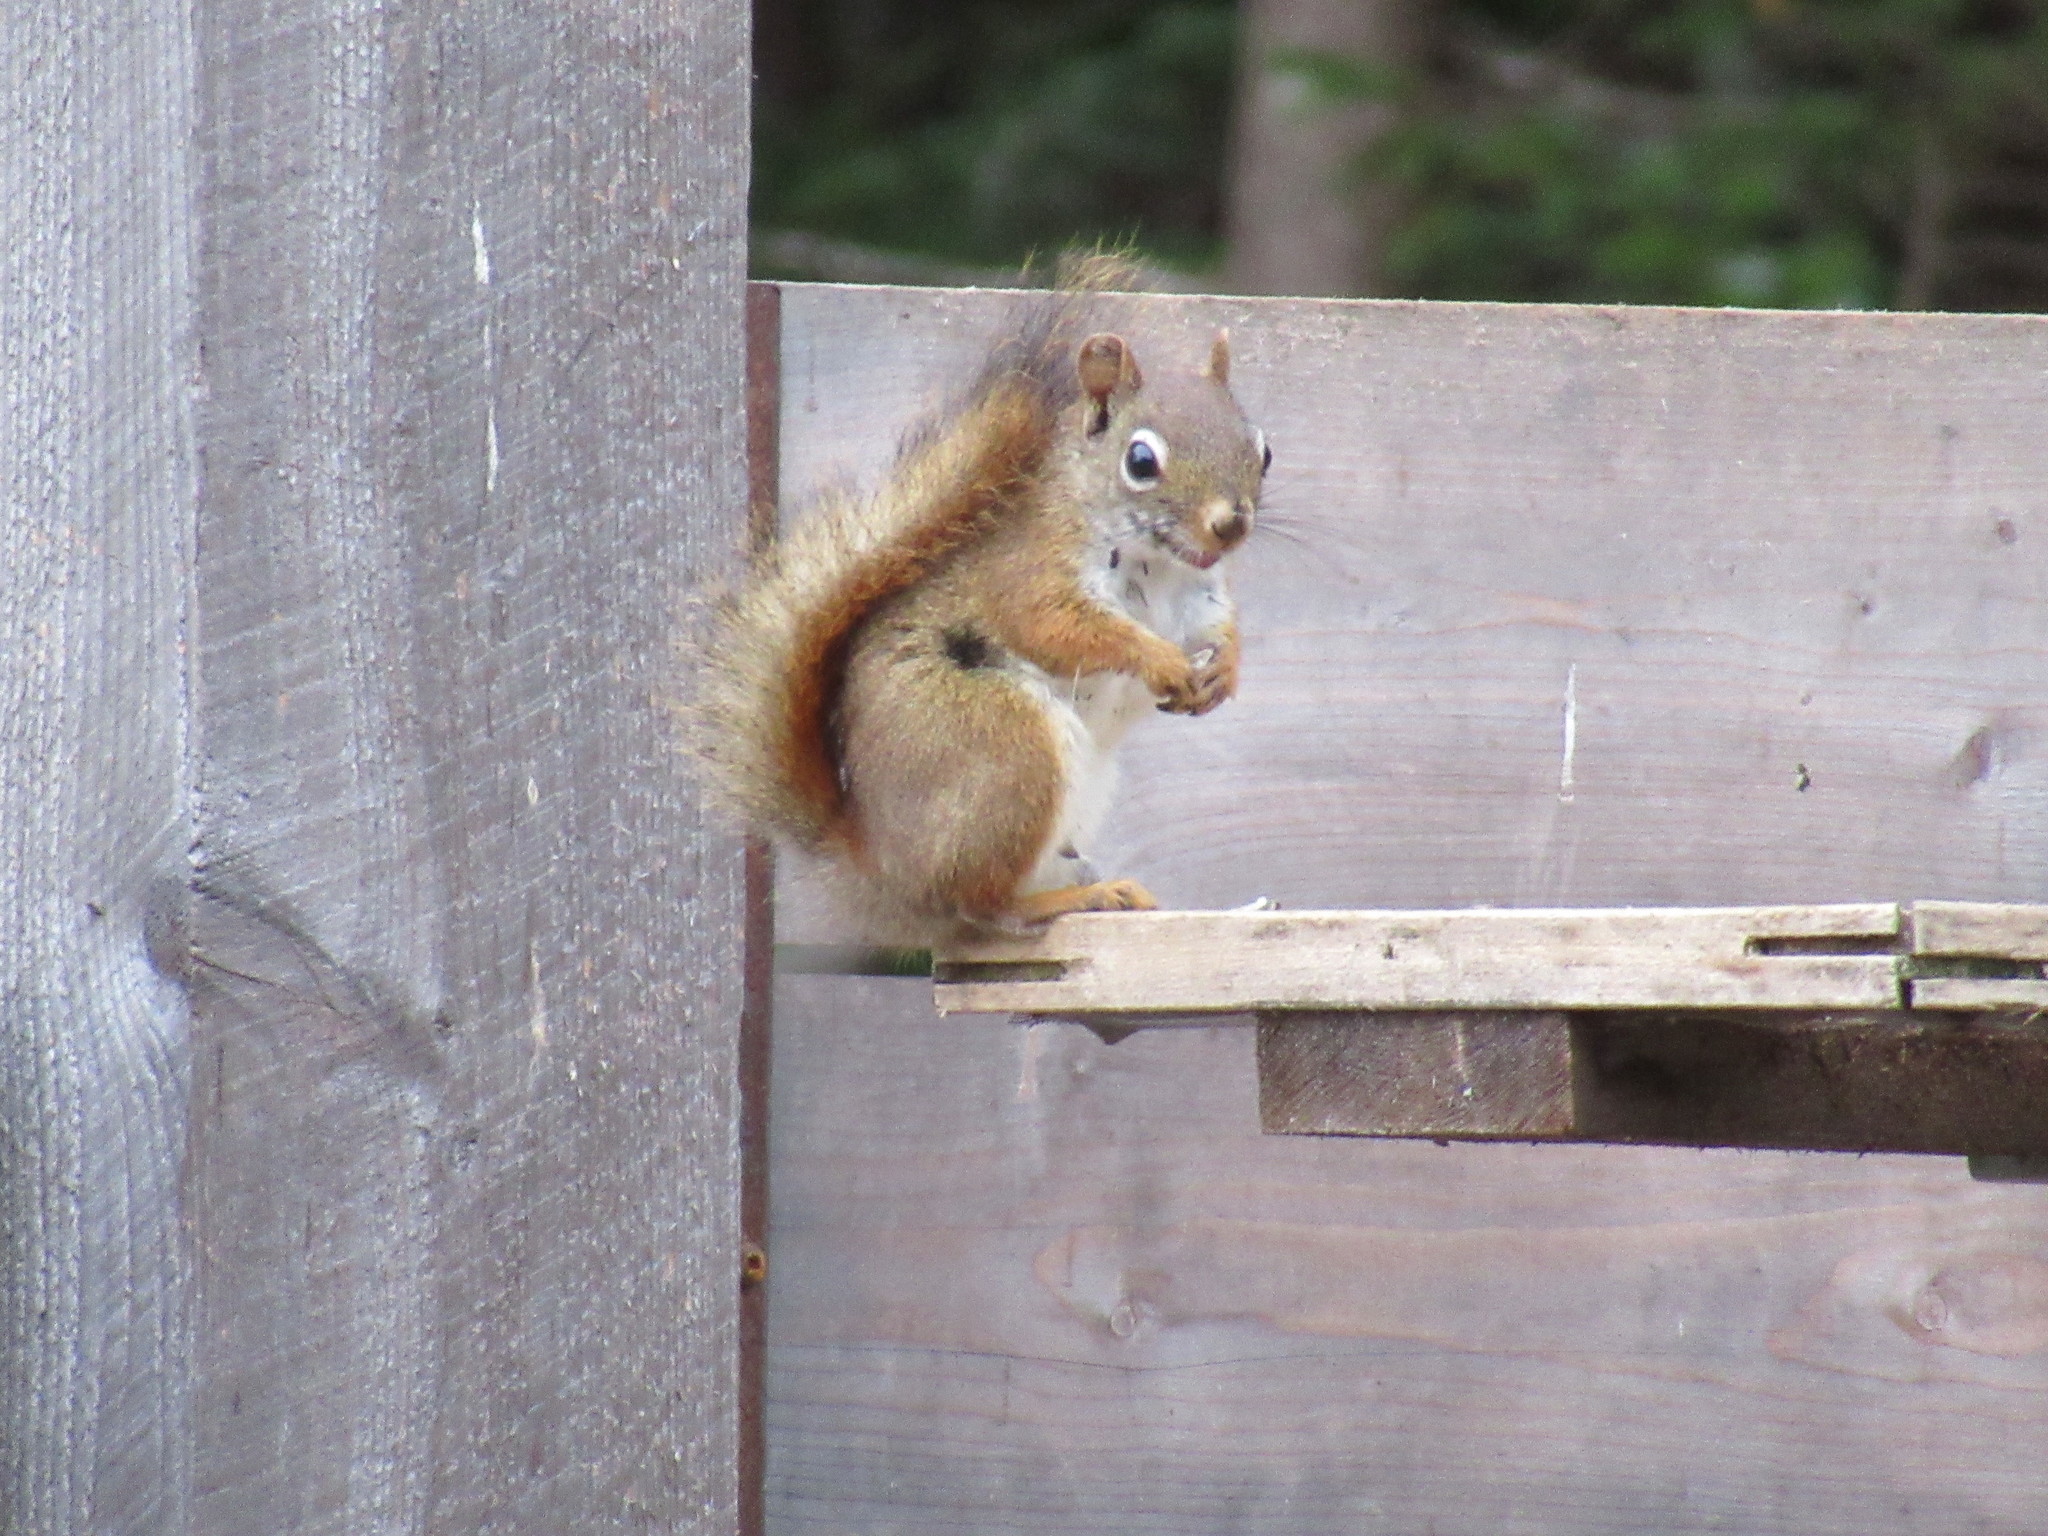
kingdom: Animalia
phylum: Chordata
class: Mammalia
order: Rodentia
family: Sciuridae
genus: Tamiasciurus
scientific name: Tamiasciurus hudsonicus
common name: Red squirrel
